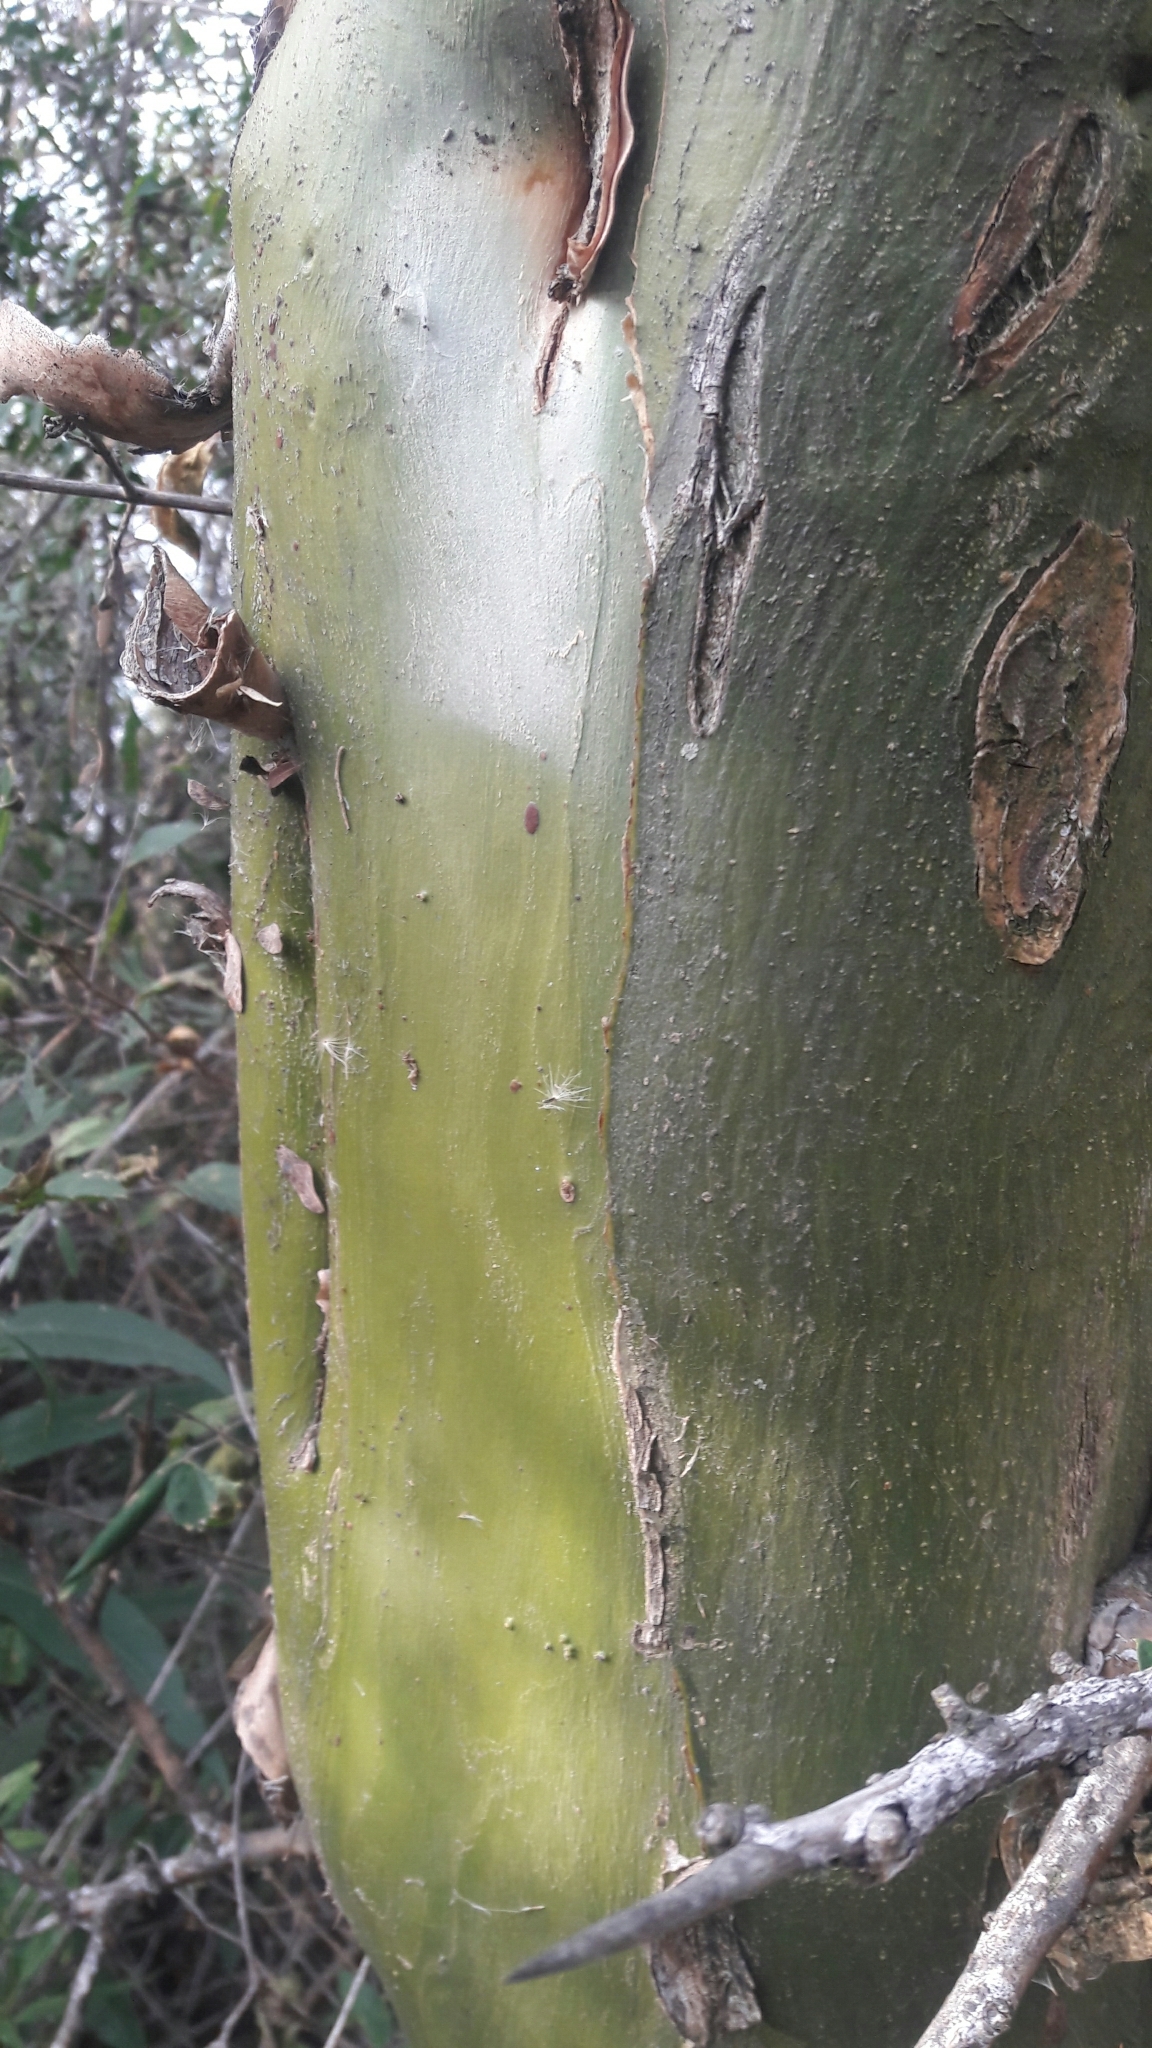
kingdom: Plantae
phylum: Tracheophyta
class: Magnoliopsida
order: Fabales
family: Fabaceae
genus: Geoffroea
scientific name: Geoffroea decorticans
